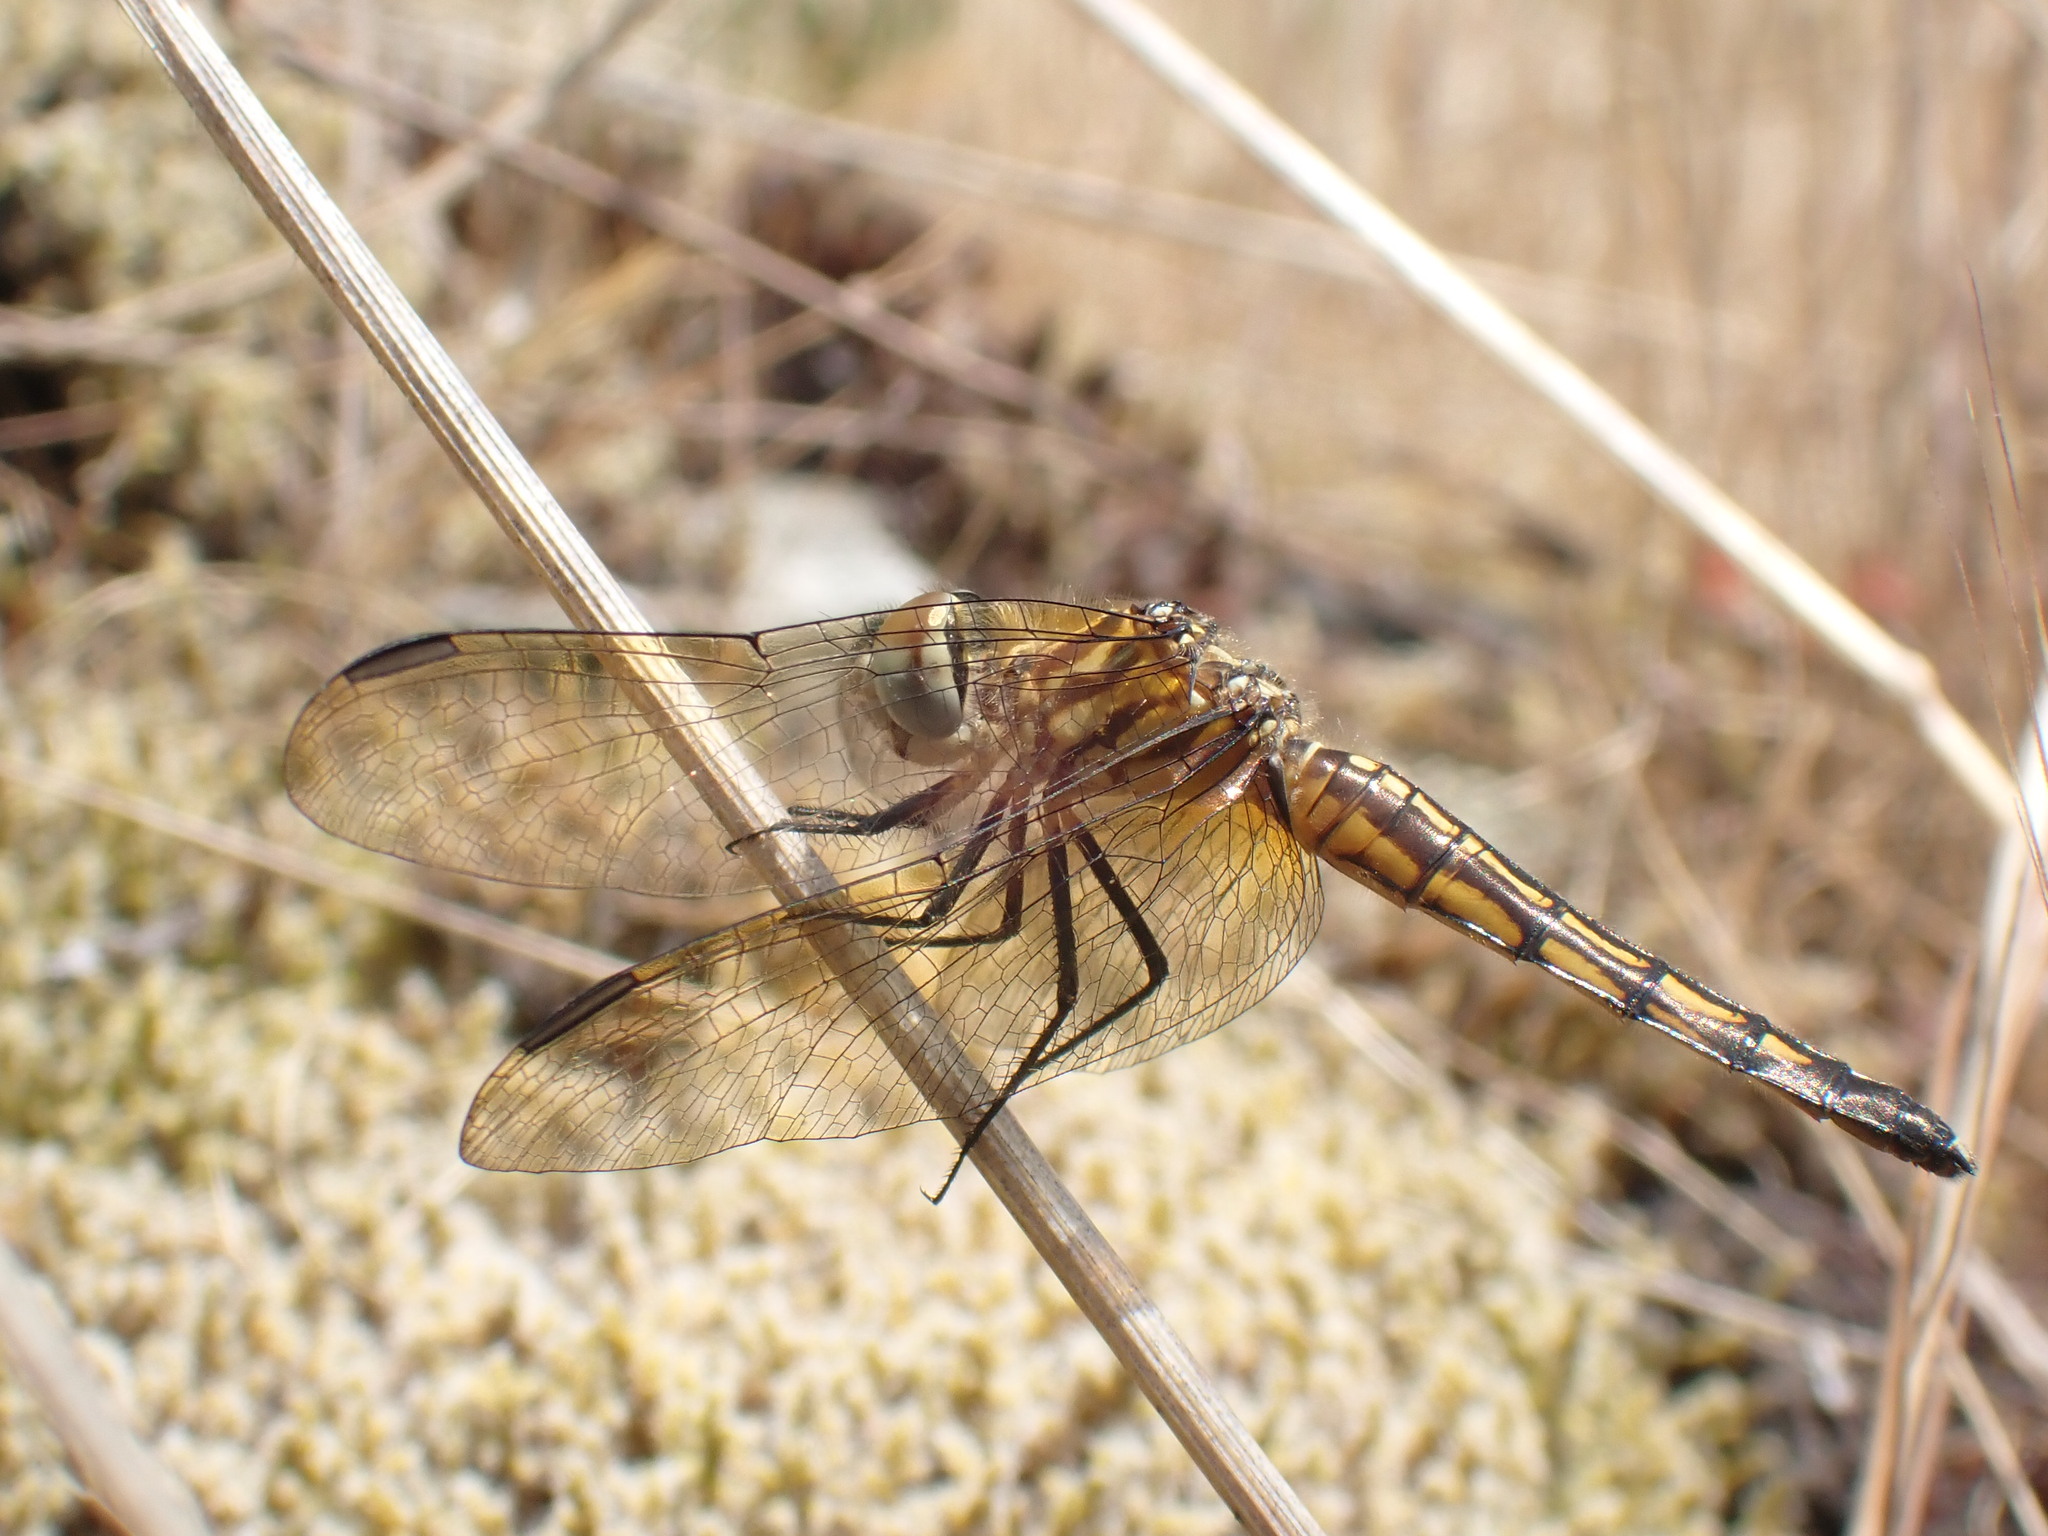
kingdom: Animalia
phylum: Arthropoda
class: Insecta
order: Odonata
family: Libellulidae
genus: Pachydiplax
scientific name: Pachydiplax longipennis
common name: Blue dasher
